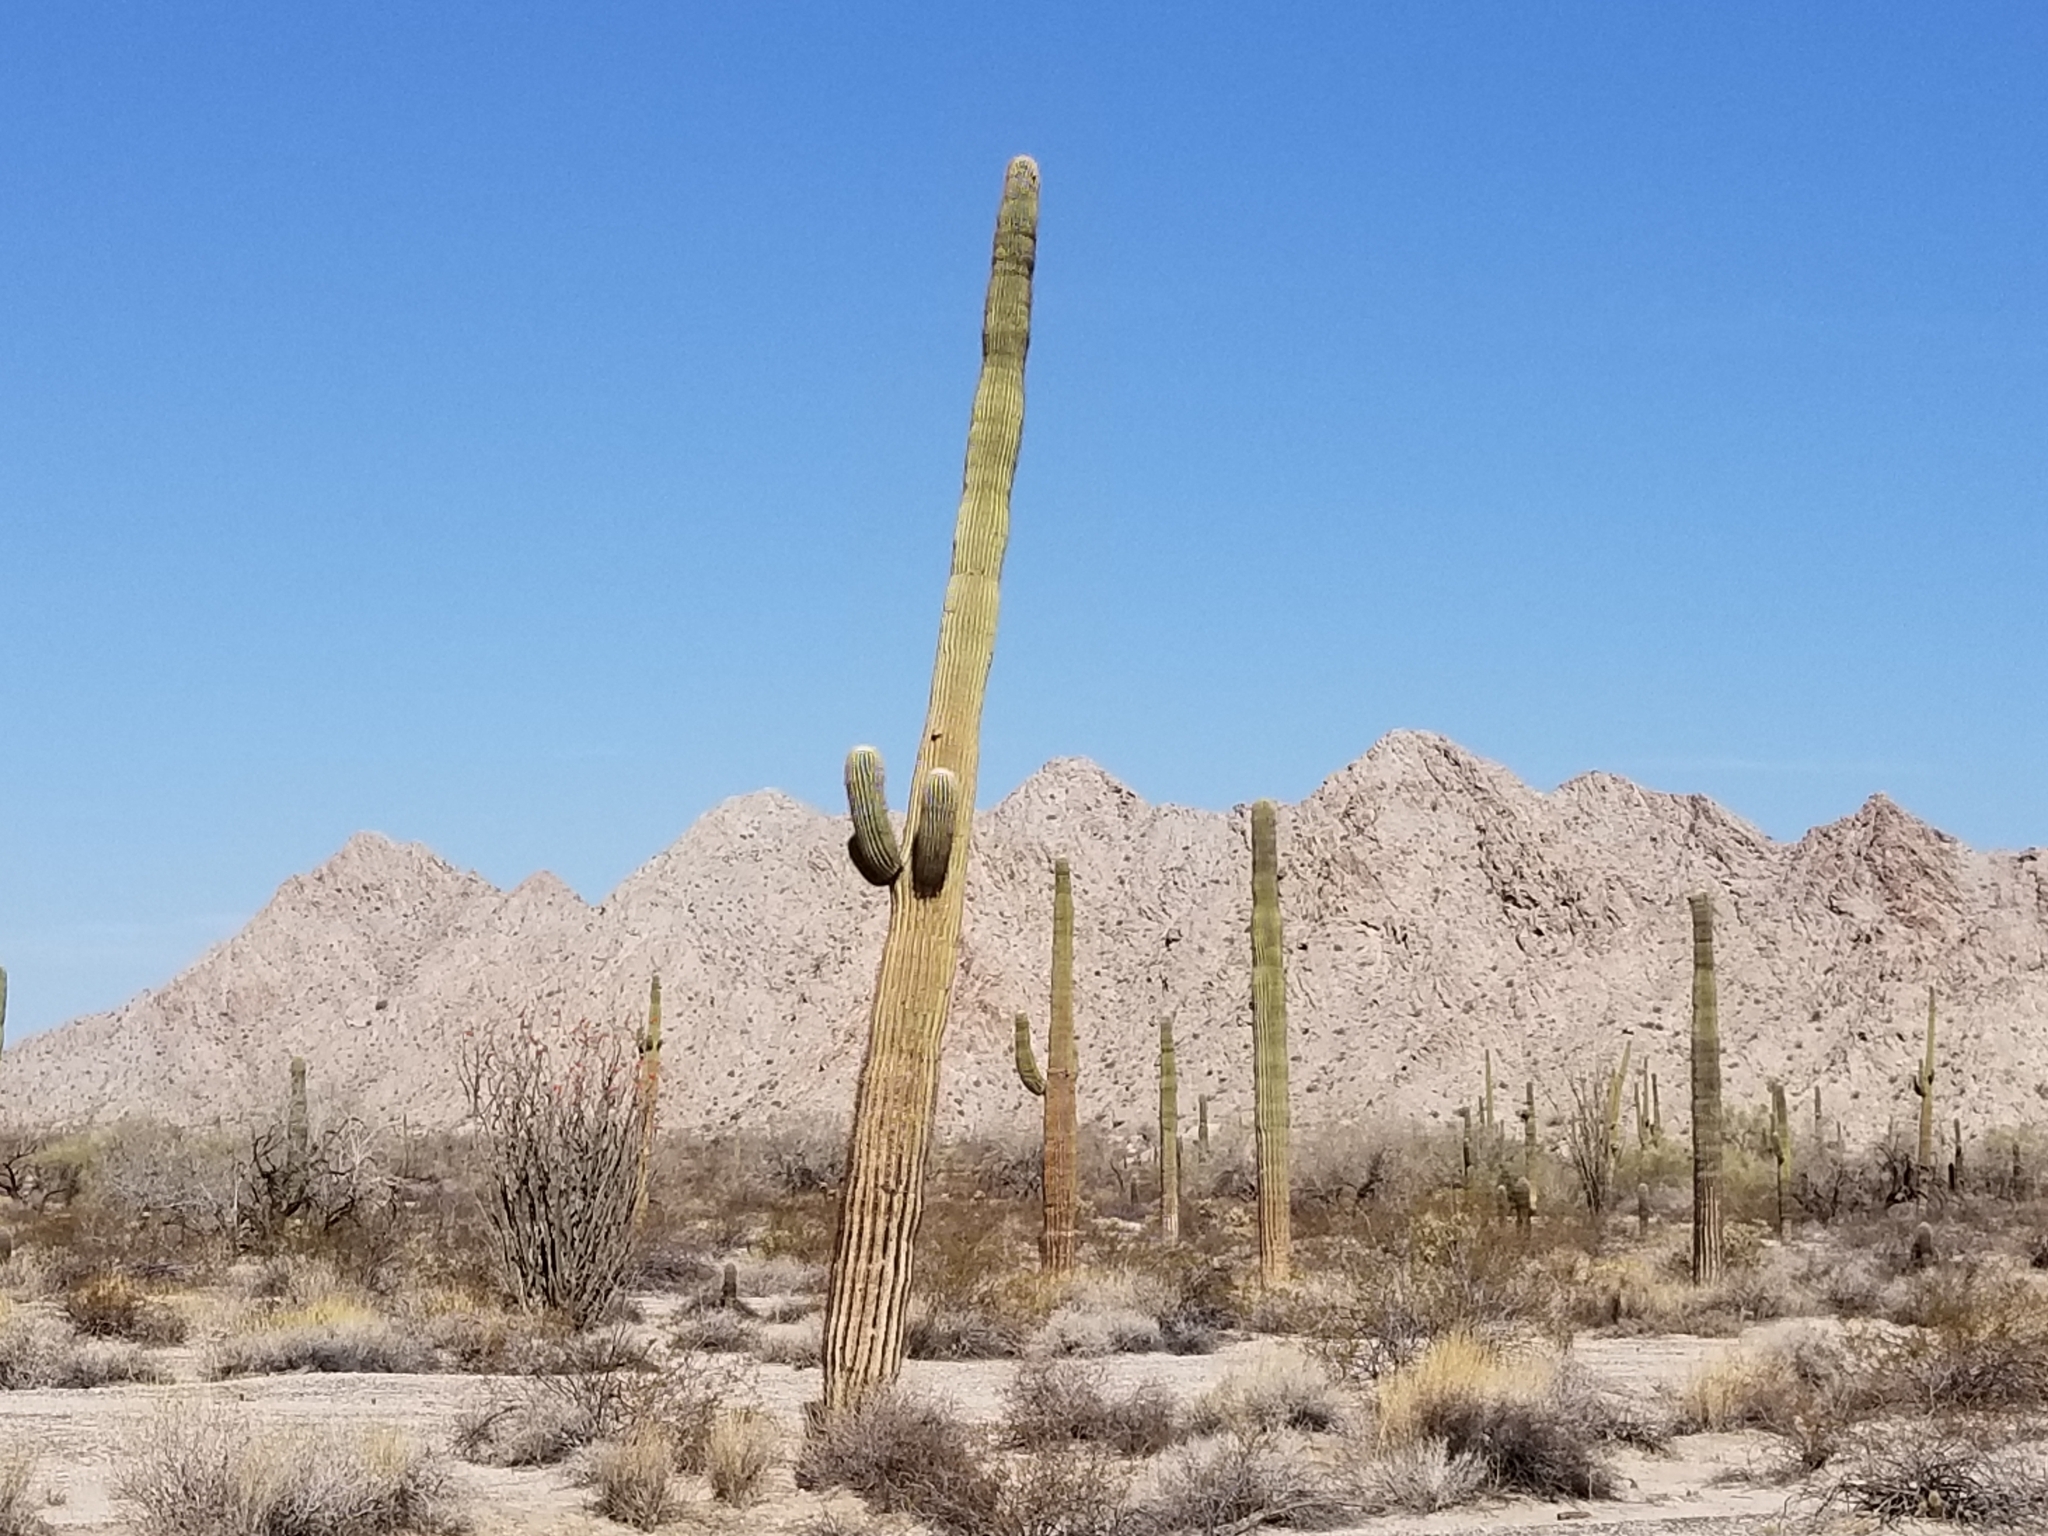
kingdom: Plantae
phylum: Tracheophyta
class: Magnoliopsida
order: Caryophyllales
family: Cactaceae
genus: Carnegiea
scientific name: Carnegiea gigantea
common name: Saguaro
